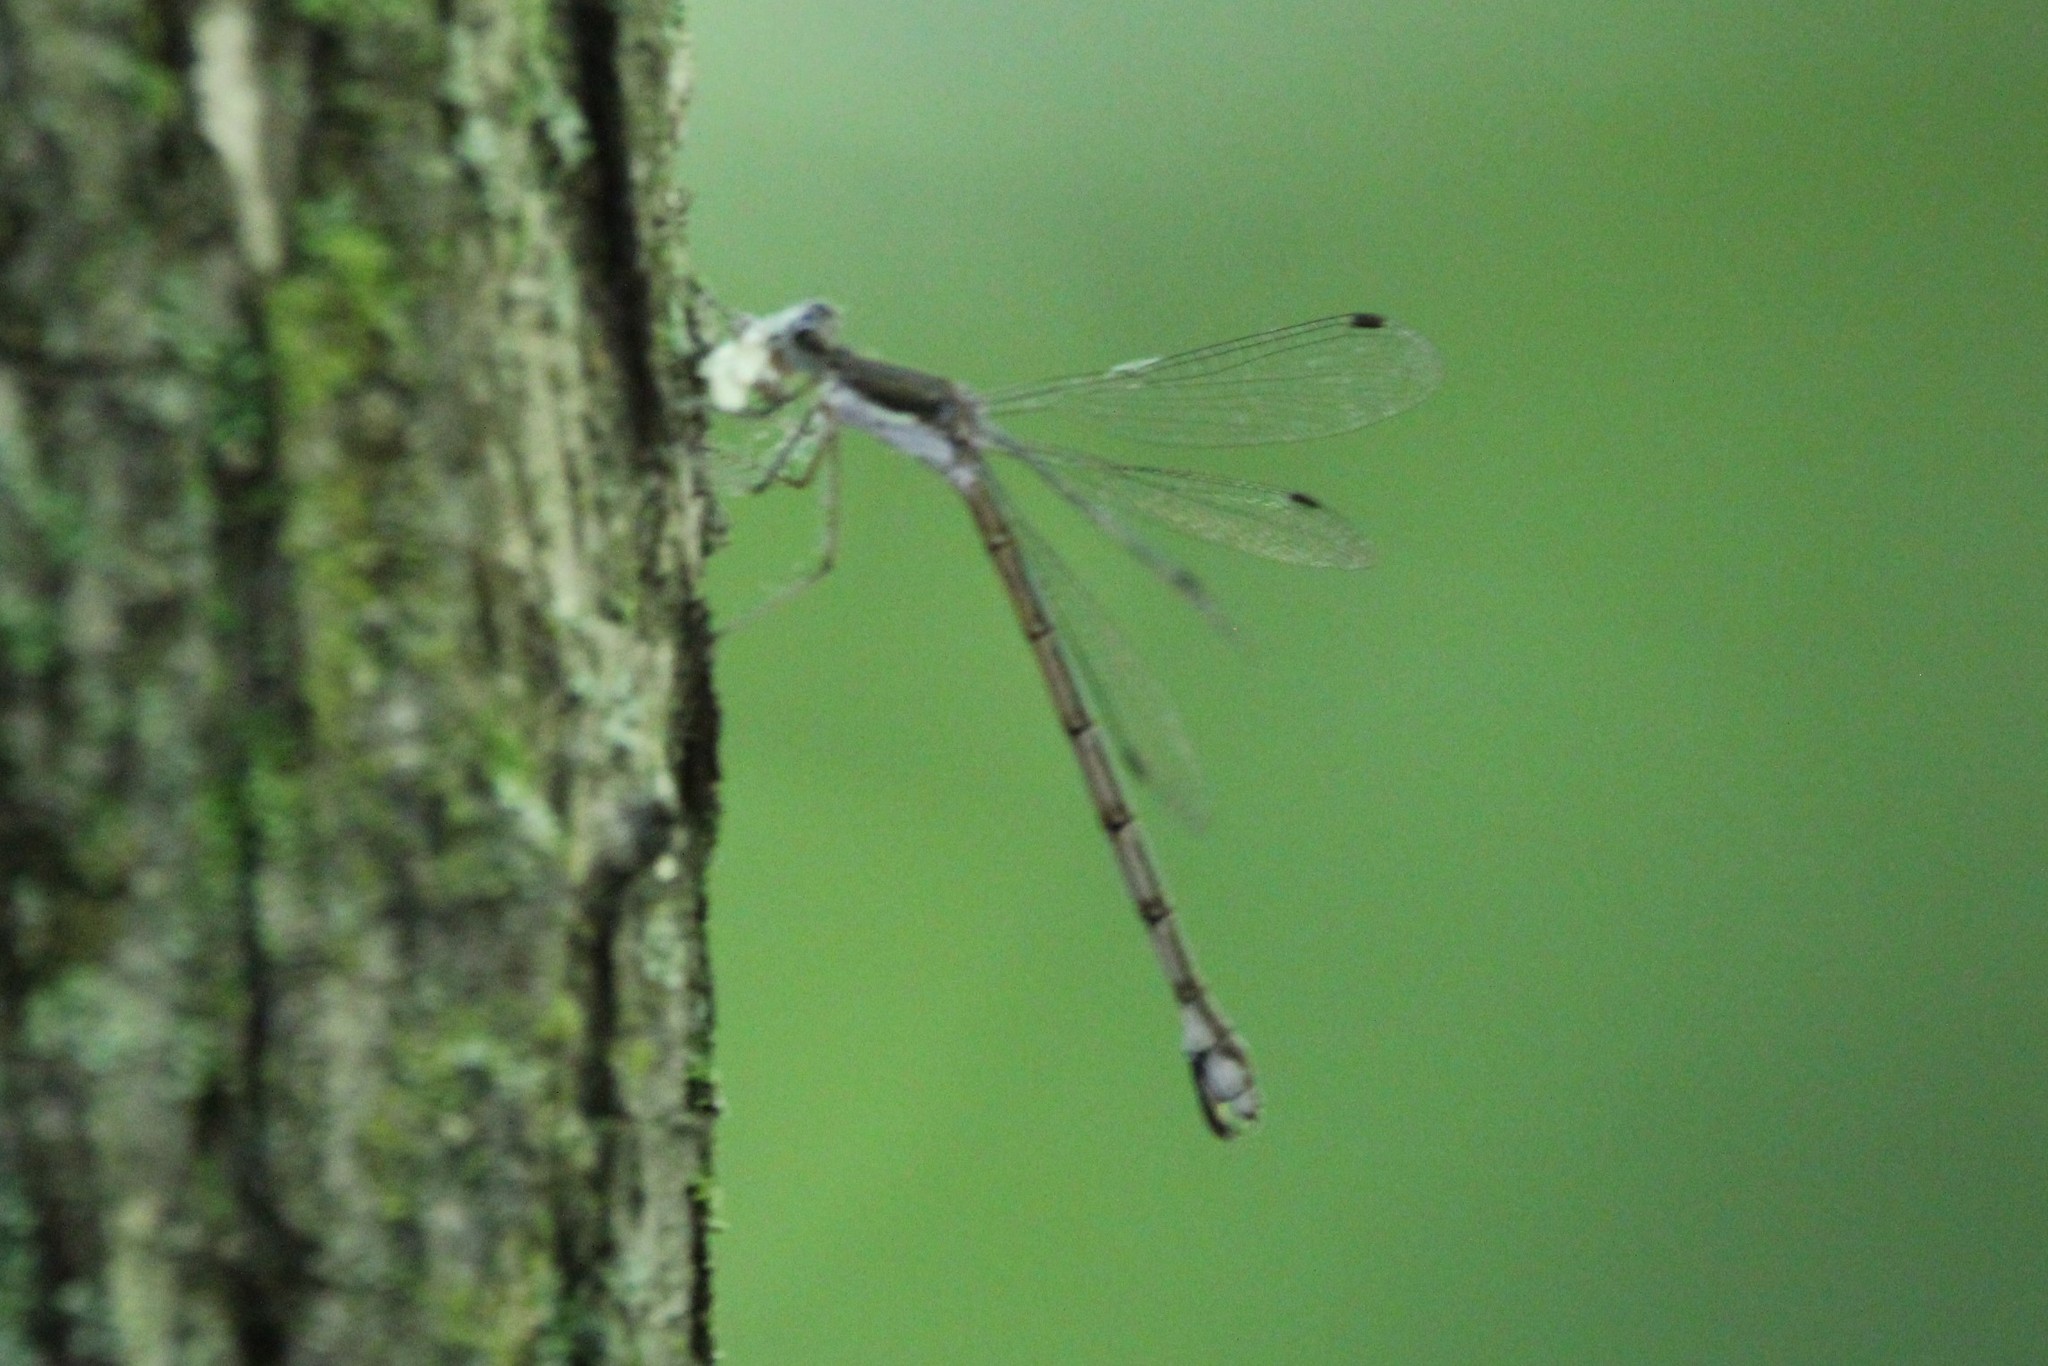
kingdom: Animalia
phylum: Arthropoda
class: Insecta
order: Odonata
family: Lestidae
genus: Lestes
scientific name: Lestes forcipatus
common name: Sweetflag spreadwing
